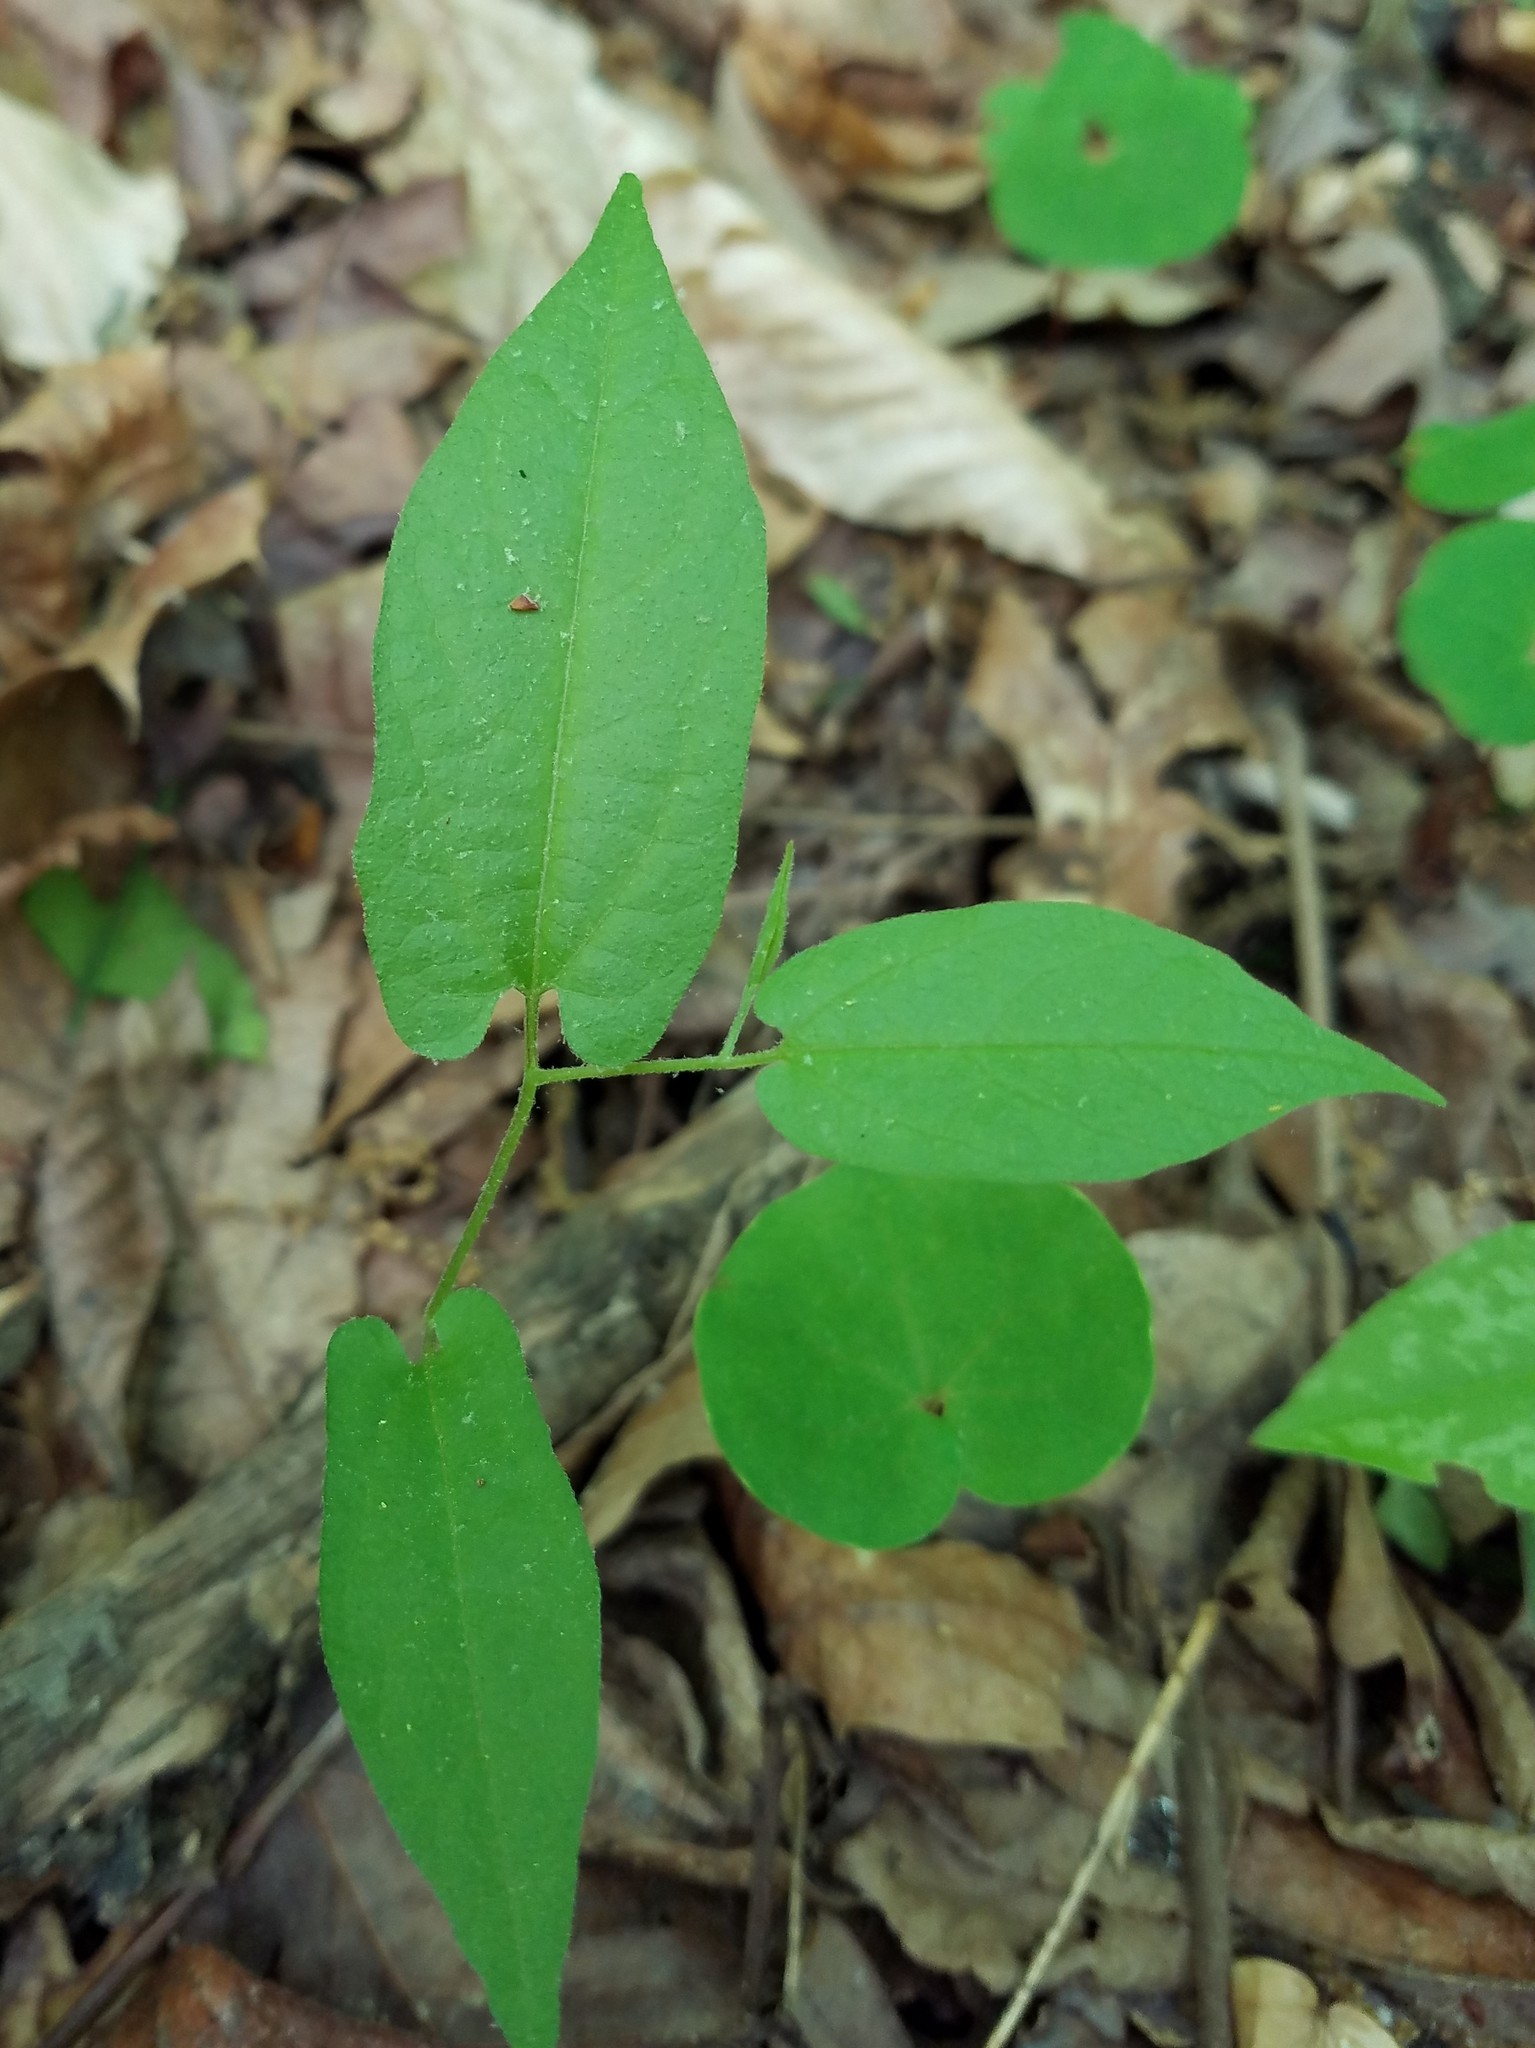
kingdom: Plantae
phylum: Tracheophyta
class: Magnoliopsida
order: Piperales
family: Aristolochiaceae
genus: Endodeca
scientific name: Endodeca serpentaria
